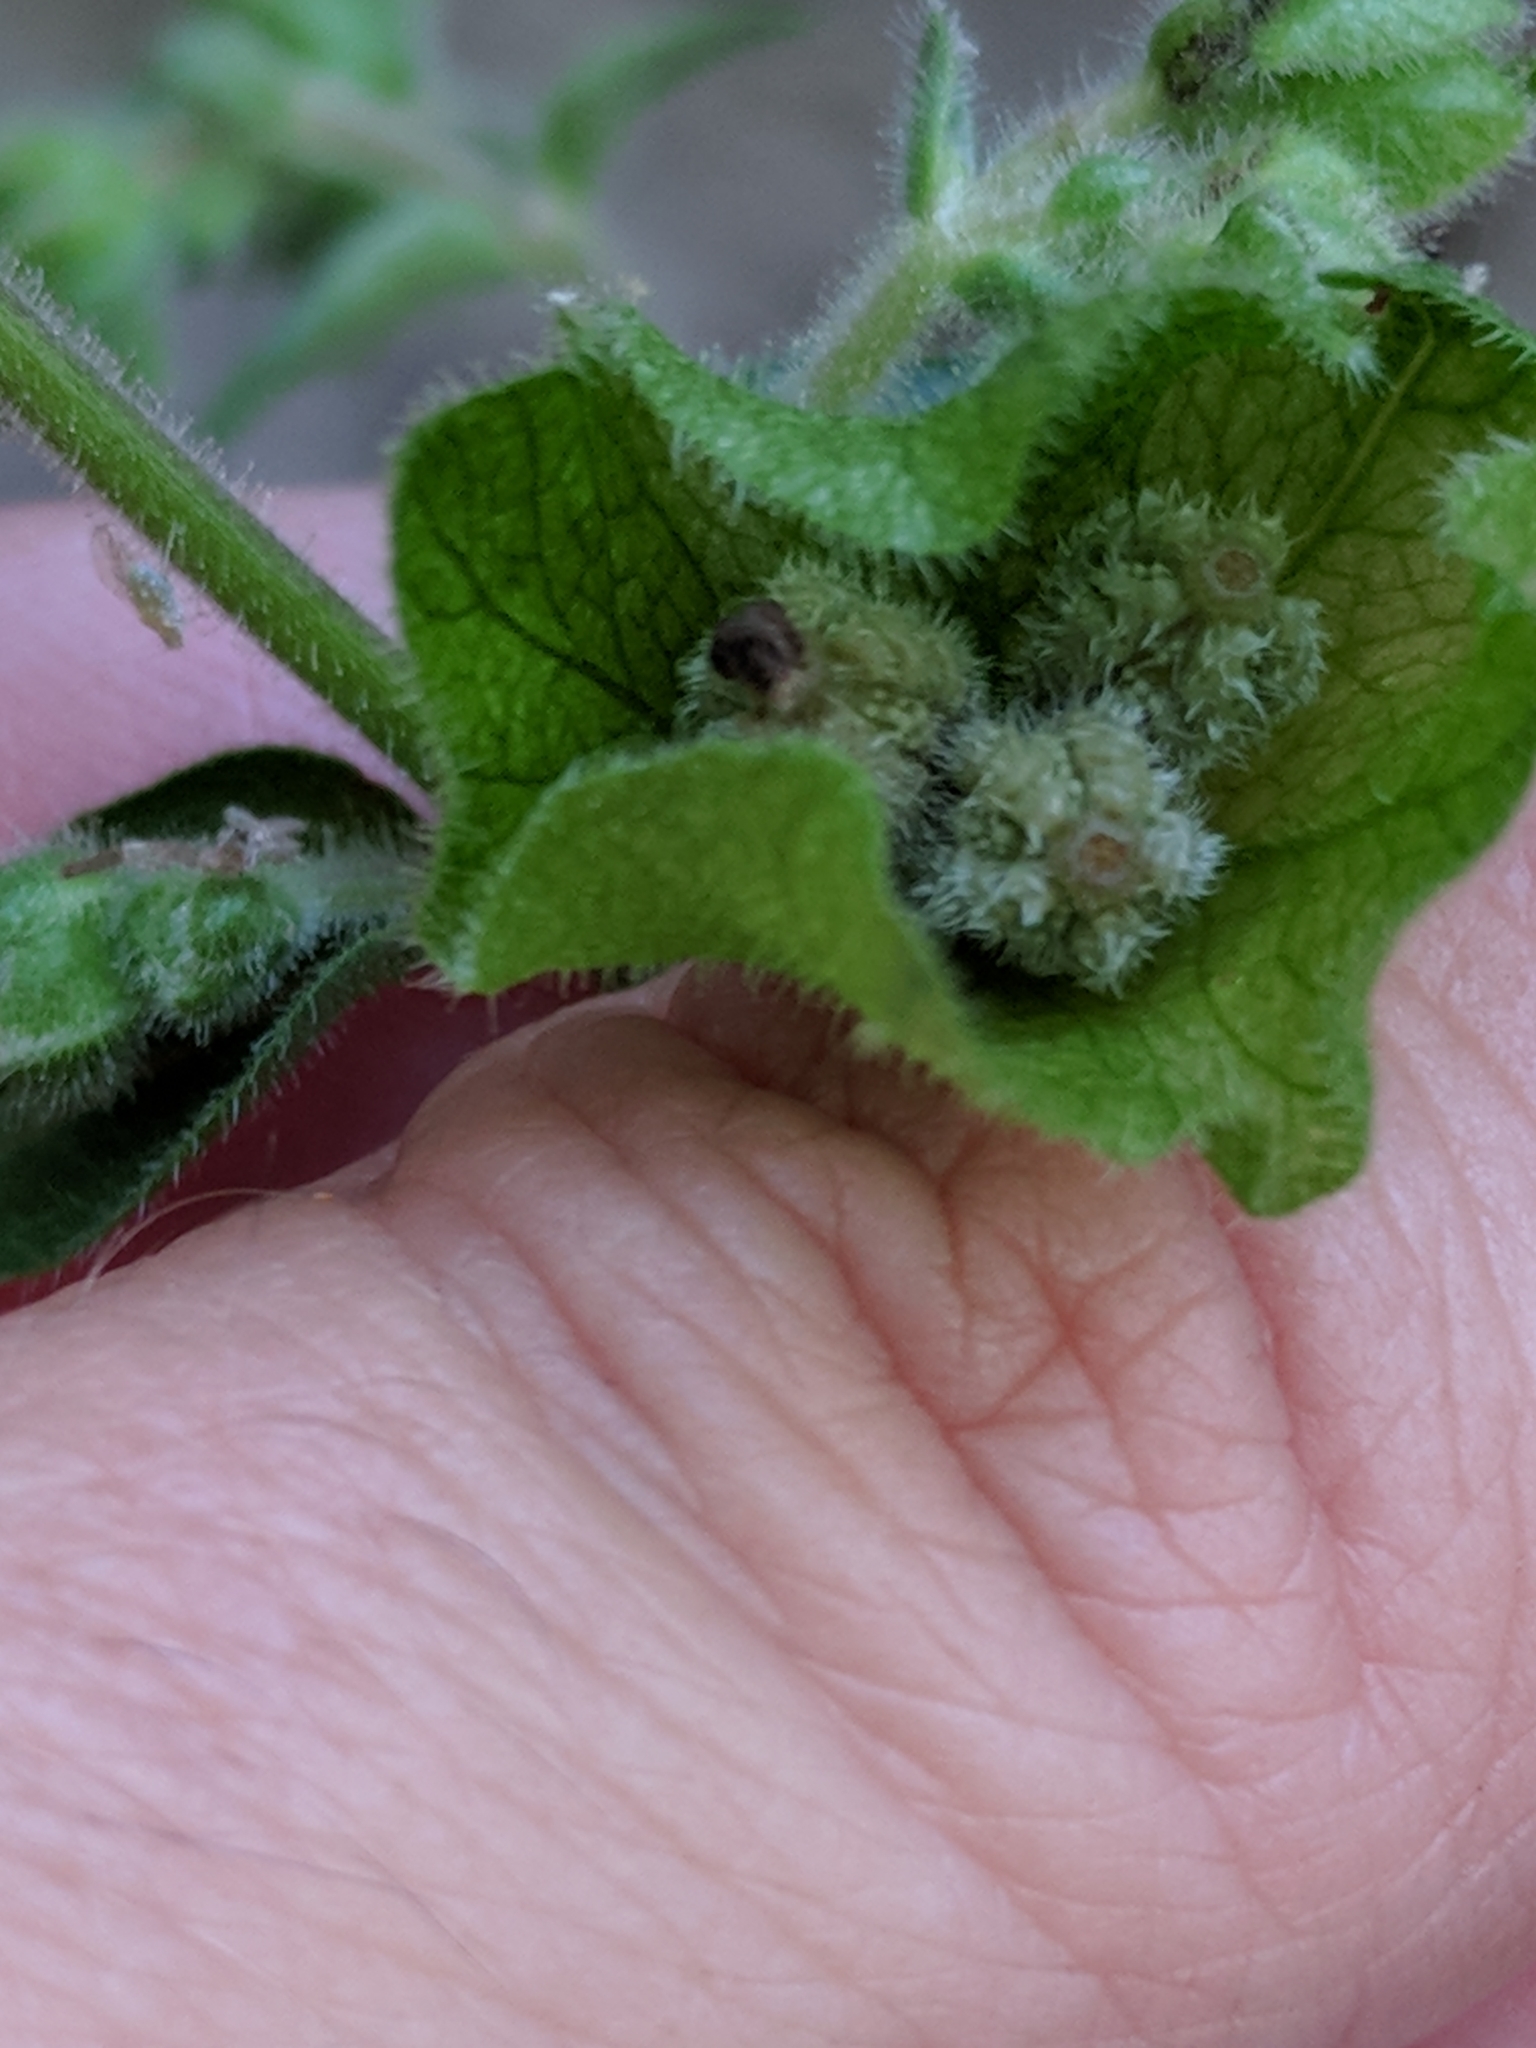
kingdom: Plantae
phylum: Tracheophyta
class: Magnoliopsida
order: Caryophyllales
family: Nyctaginaceae
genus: Mirabilis
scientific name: Mirabilis albida
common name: Hairy four-o'clock
